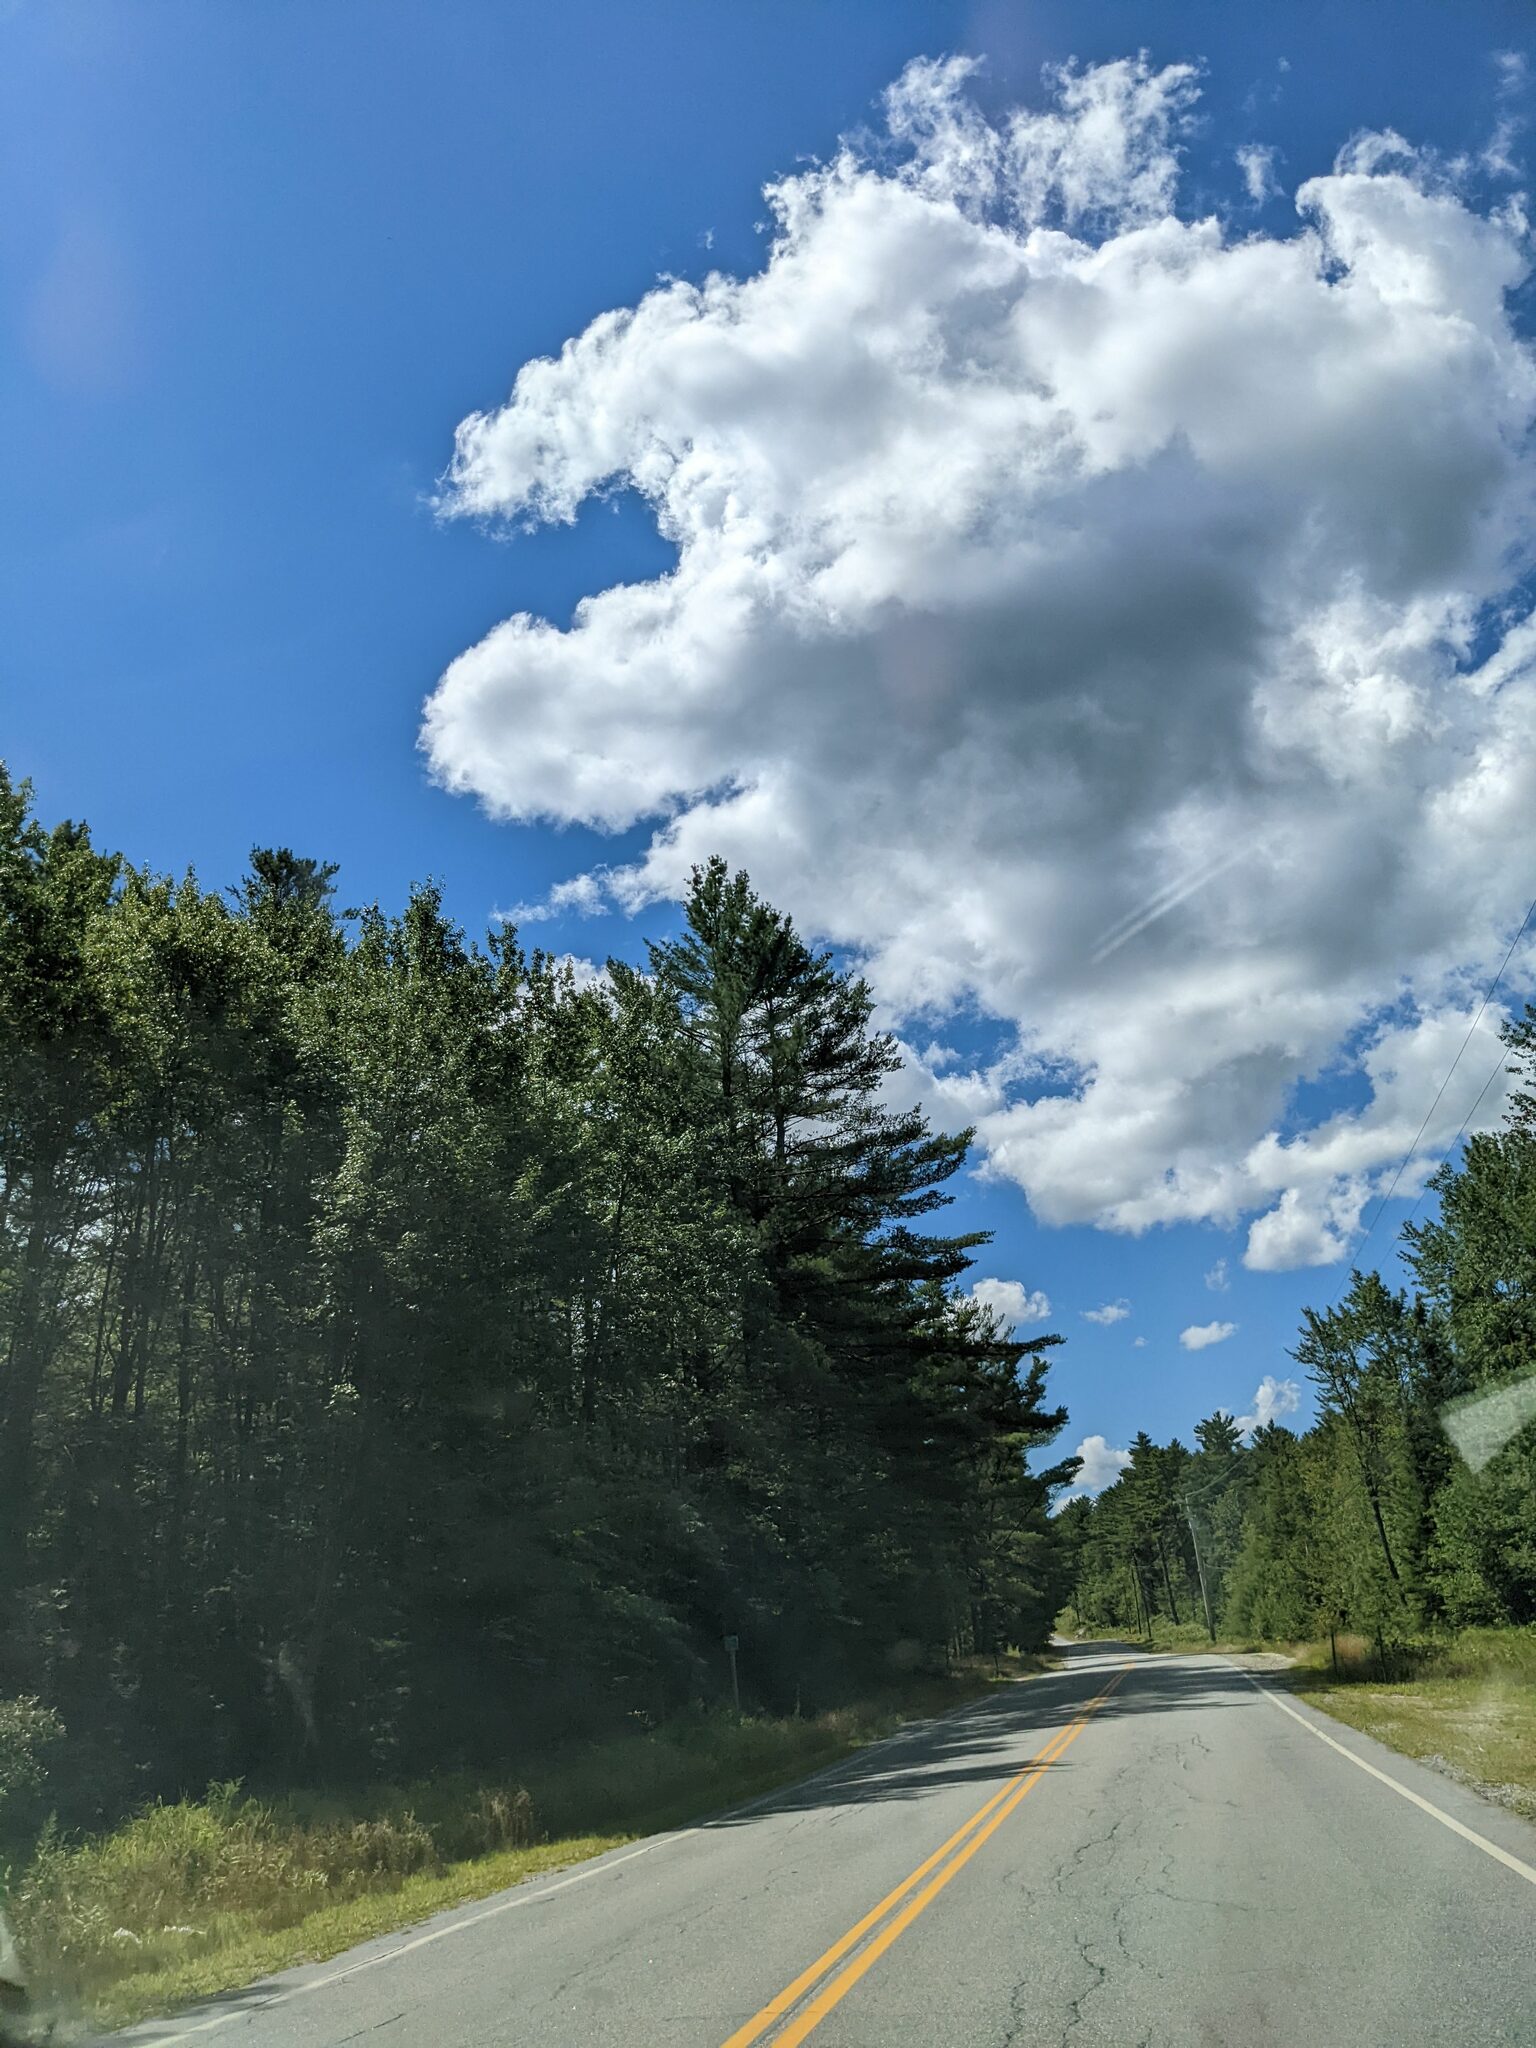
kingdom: Plantae
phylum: Tracheophyta
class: Pinopsida
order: Pinales
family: Pinaceae
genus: Pinus
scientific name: Pinus strobus
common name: Weymouth pine
